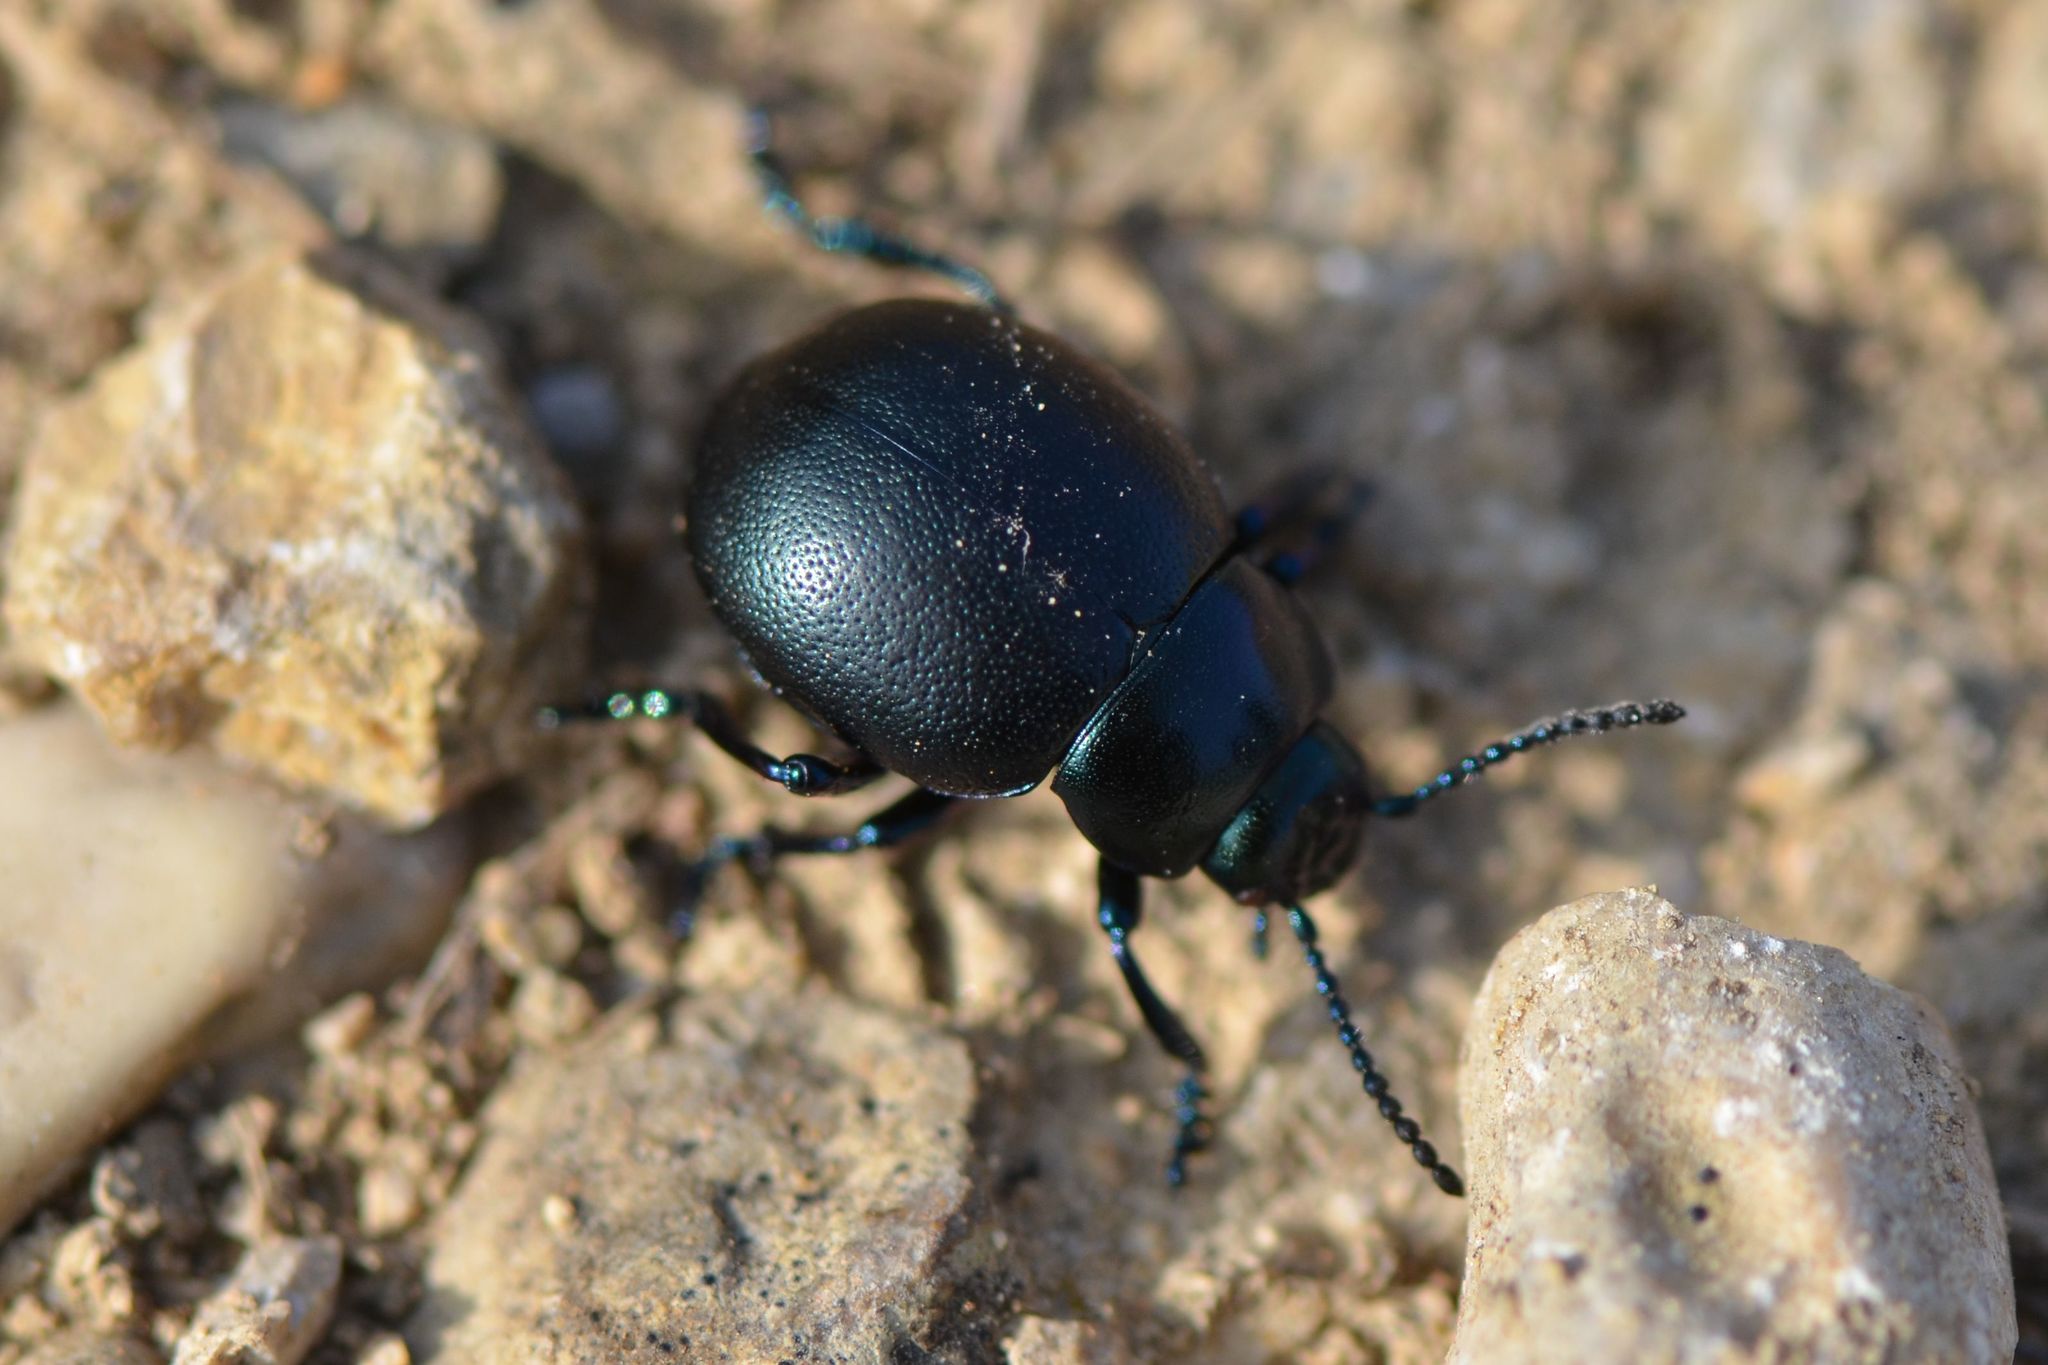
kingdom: Animalia
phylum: Arthropoda
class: Insecta
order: Coleoptera
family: Chrysomelidae
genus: Timarcha
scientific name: Timarcha goettingensis
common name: Small bloody-nosed beetle
